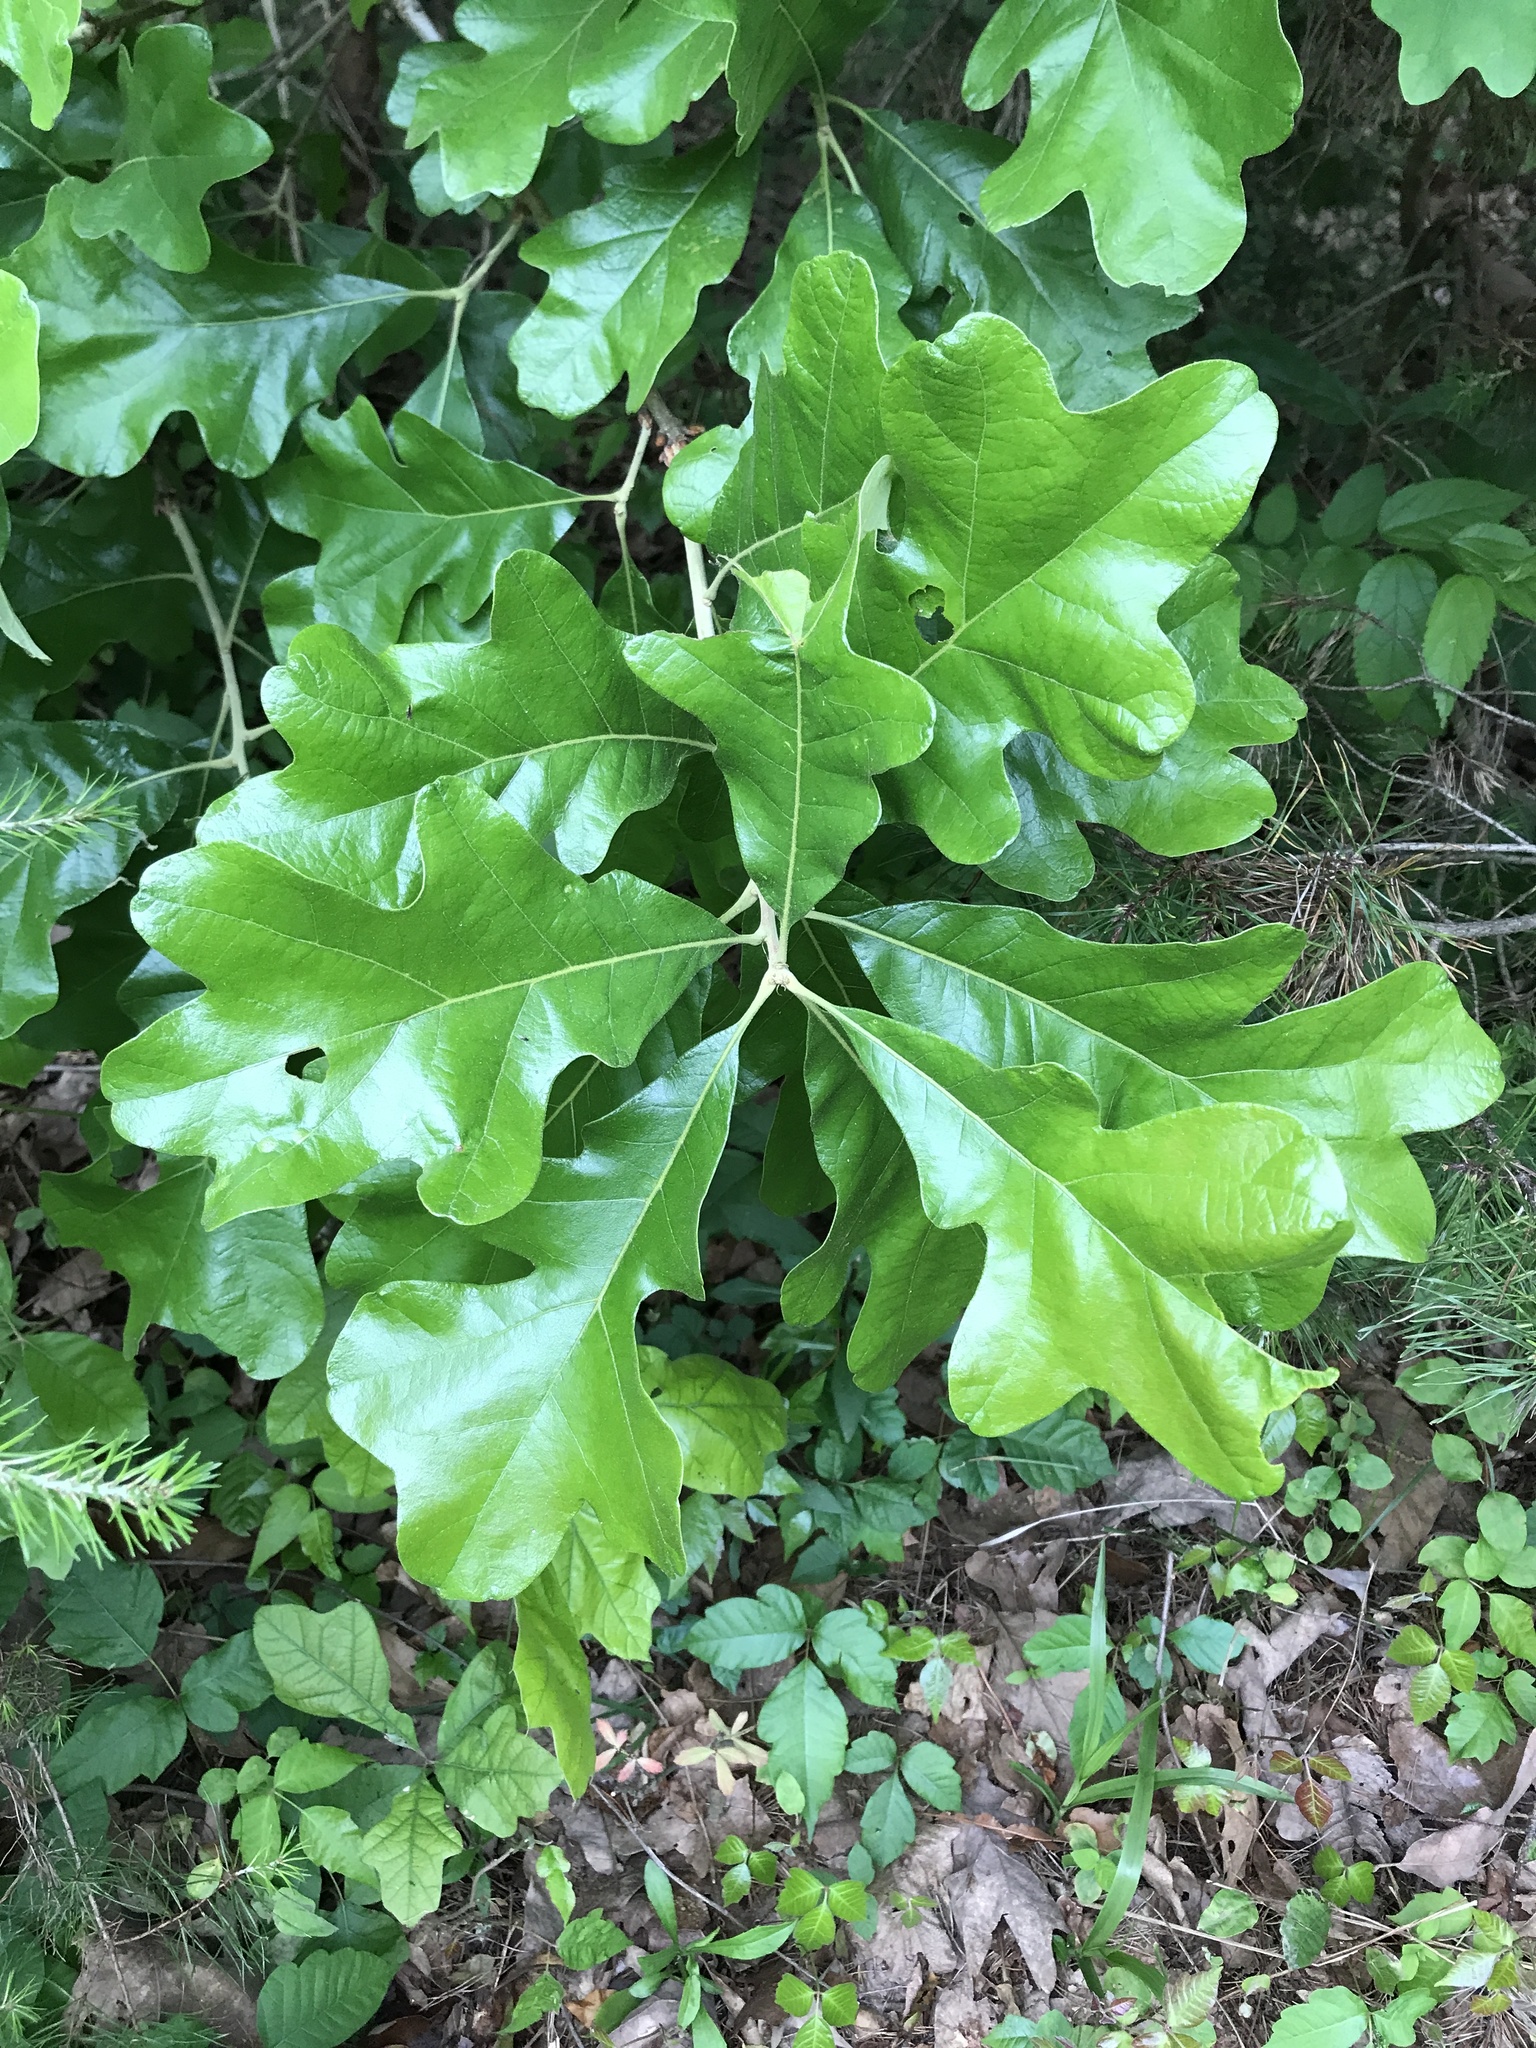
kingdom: Plantae
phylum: Tracheophyta
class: Magnoliopsida
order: Fagales
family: Fagaceae
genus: Quercus
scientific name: Quercus marilandica
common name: Blackjack oak
